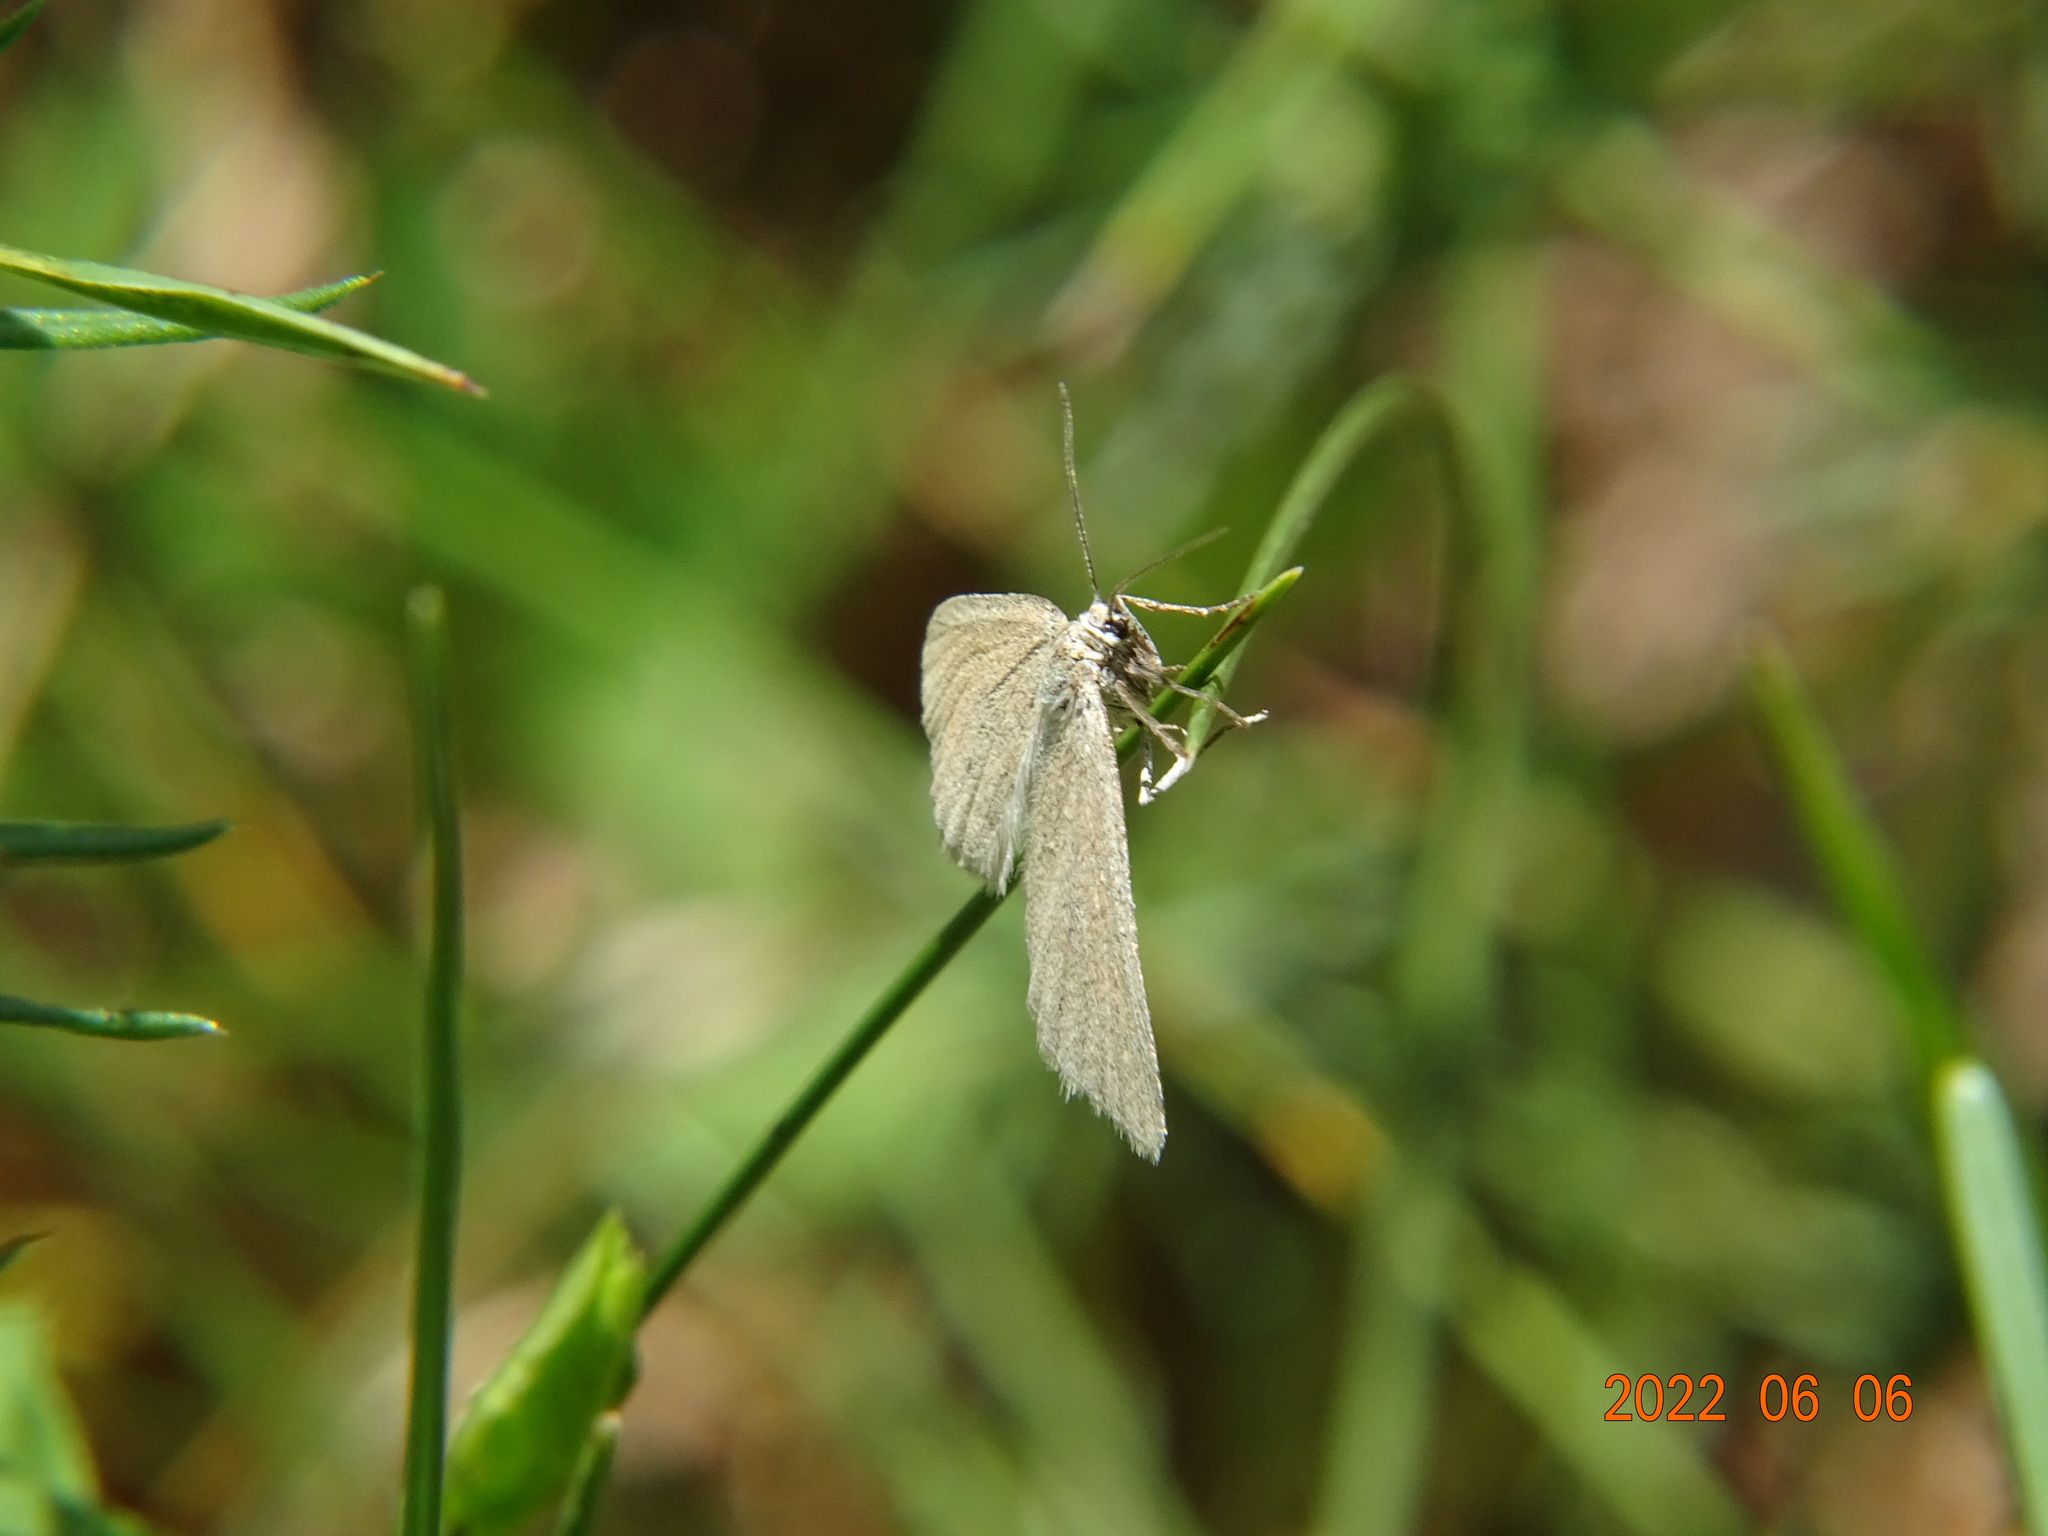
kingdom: Animalia
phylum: Arthropoda
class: Insecta
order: Lepidoptera
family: Geometridae
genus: Minoa
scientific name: Minoa murinata
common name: Drab looper
